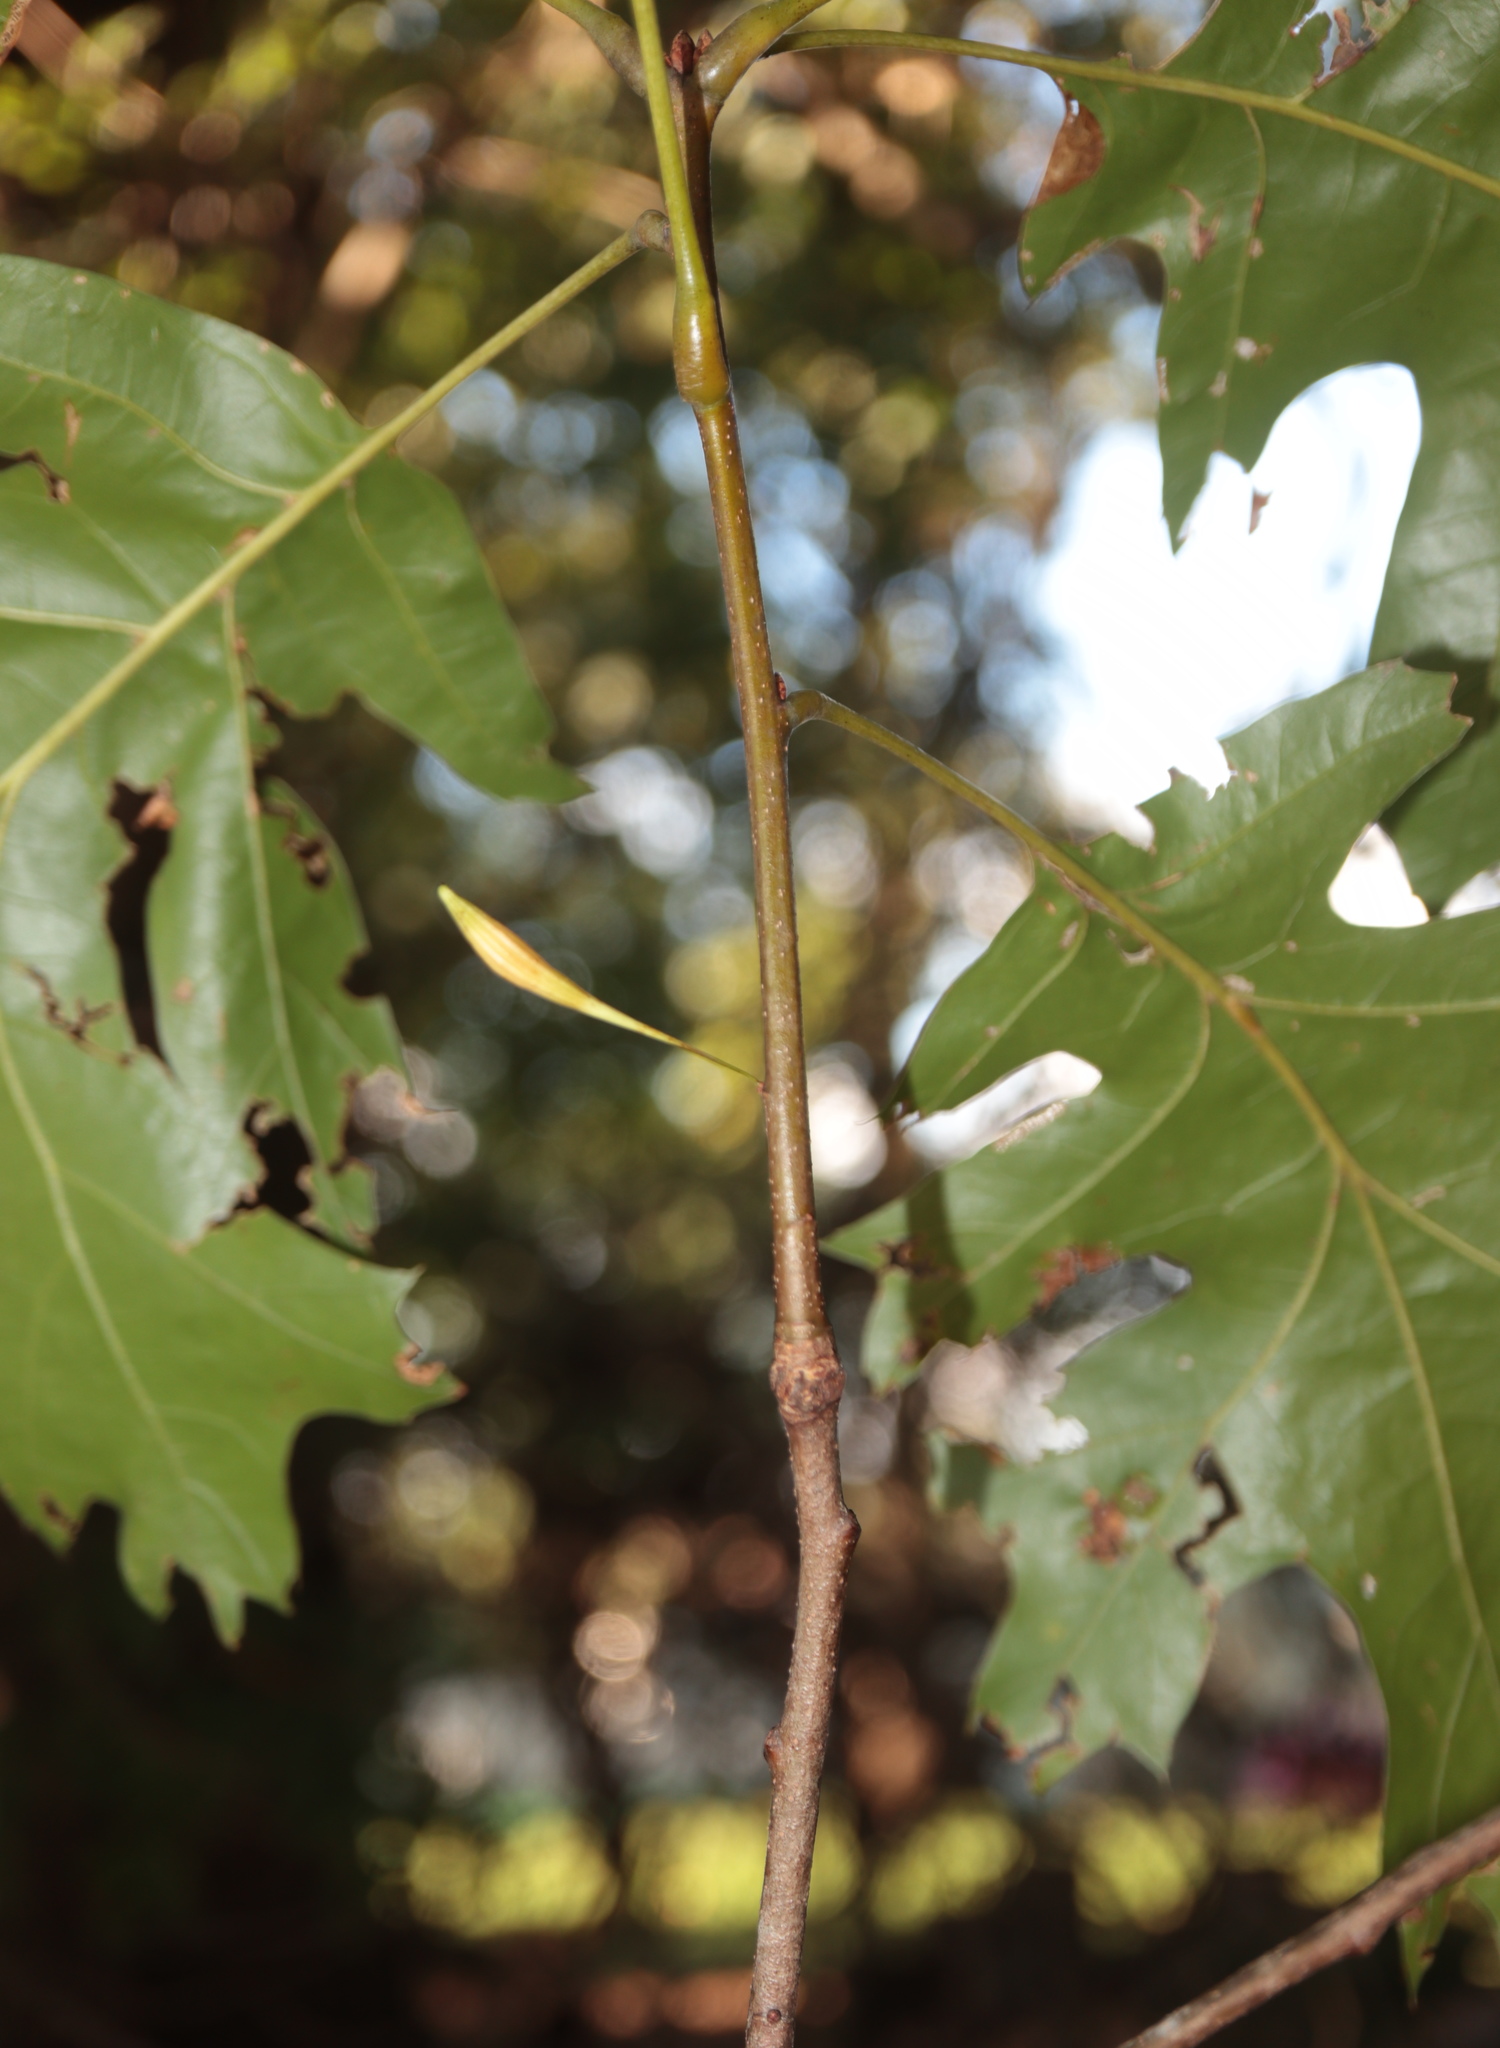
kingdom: Animalia
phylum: Arthropoda
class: Insecta
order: Hymenoptera
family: Cynipidae
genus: Callirhytis
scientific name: Callirhytis
